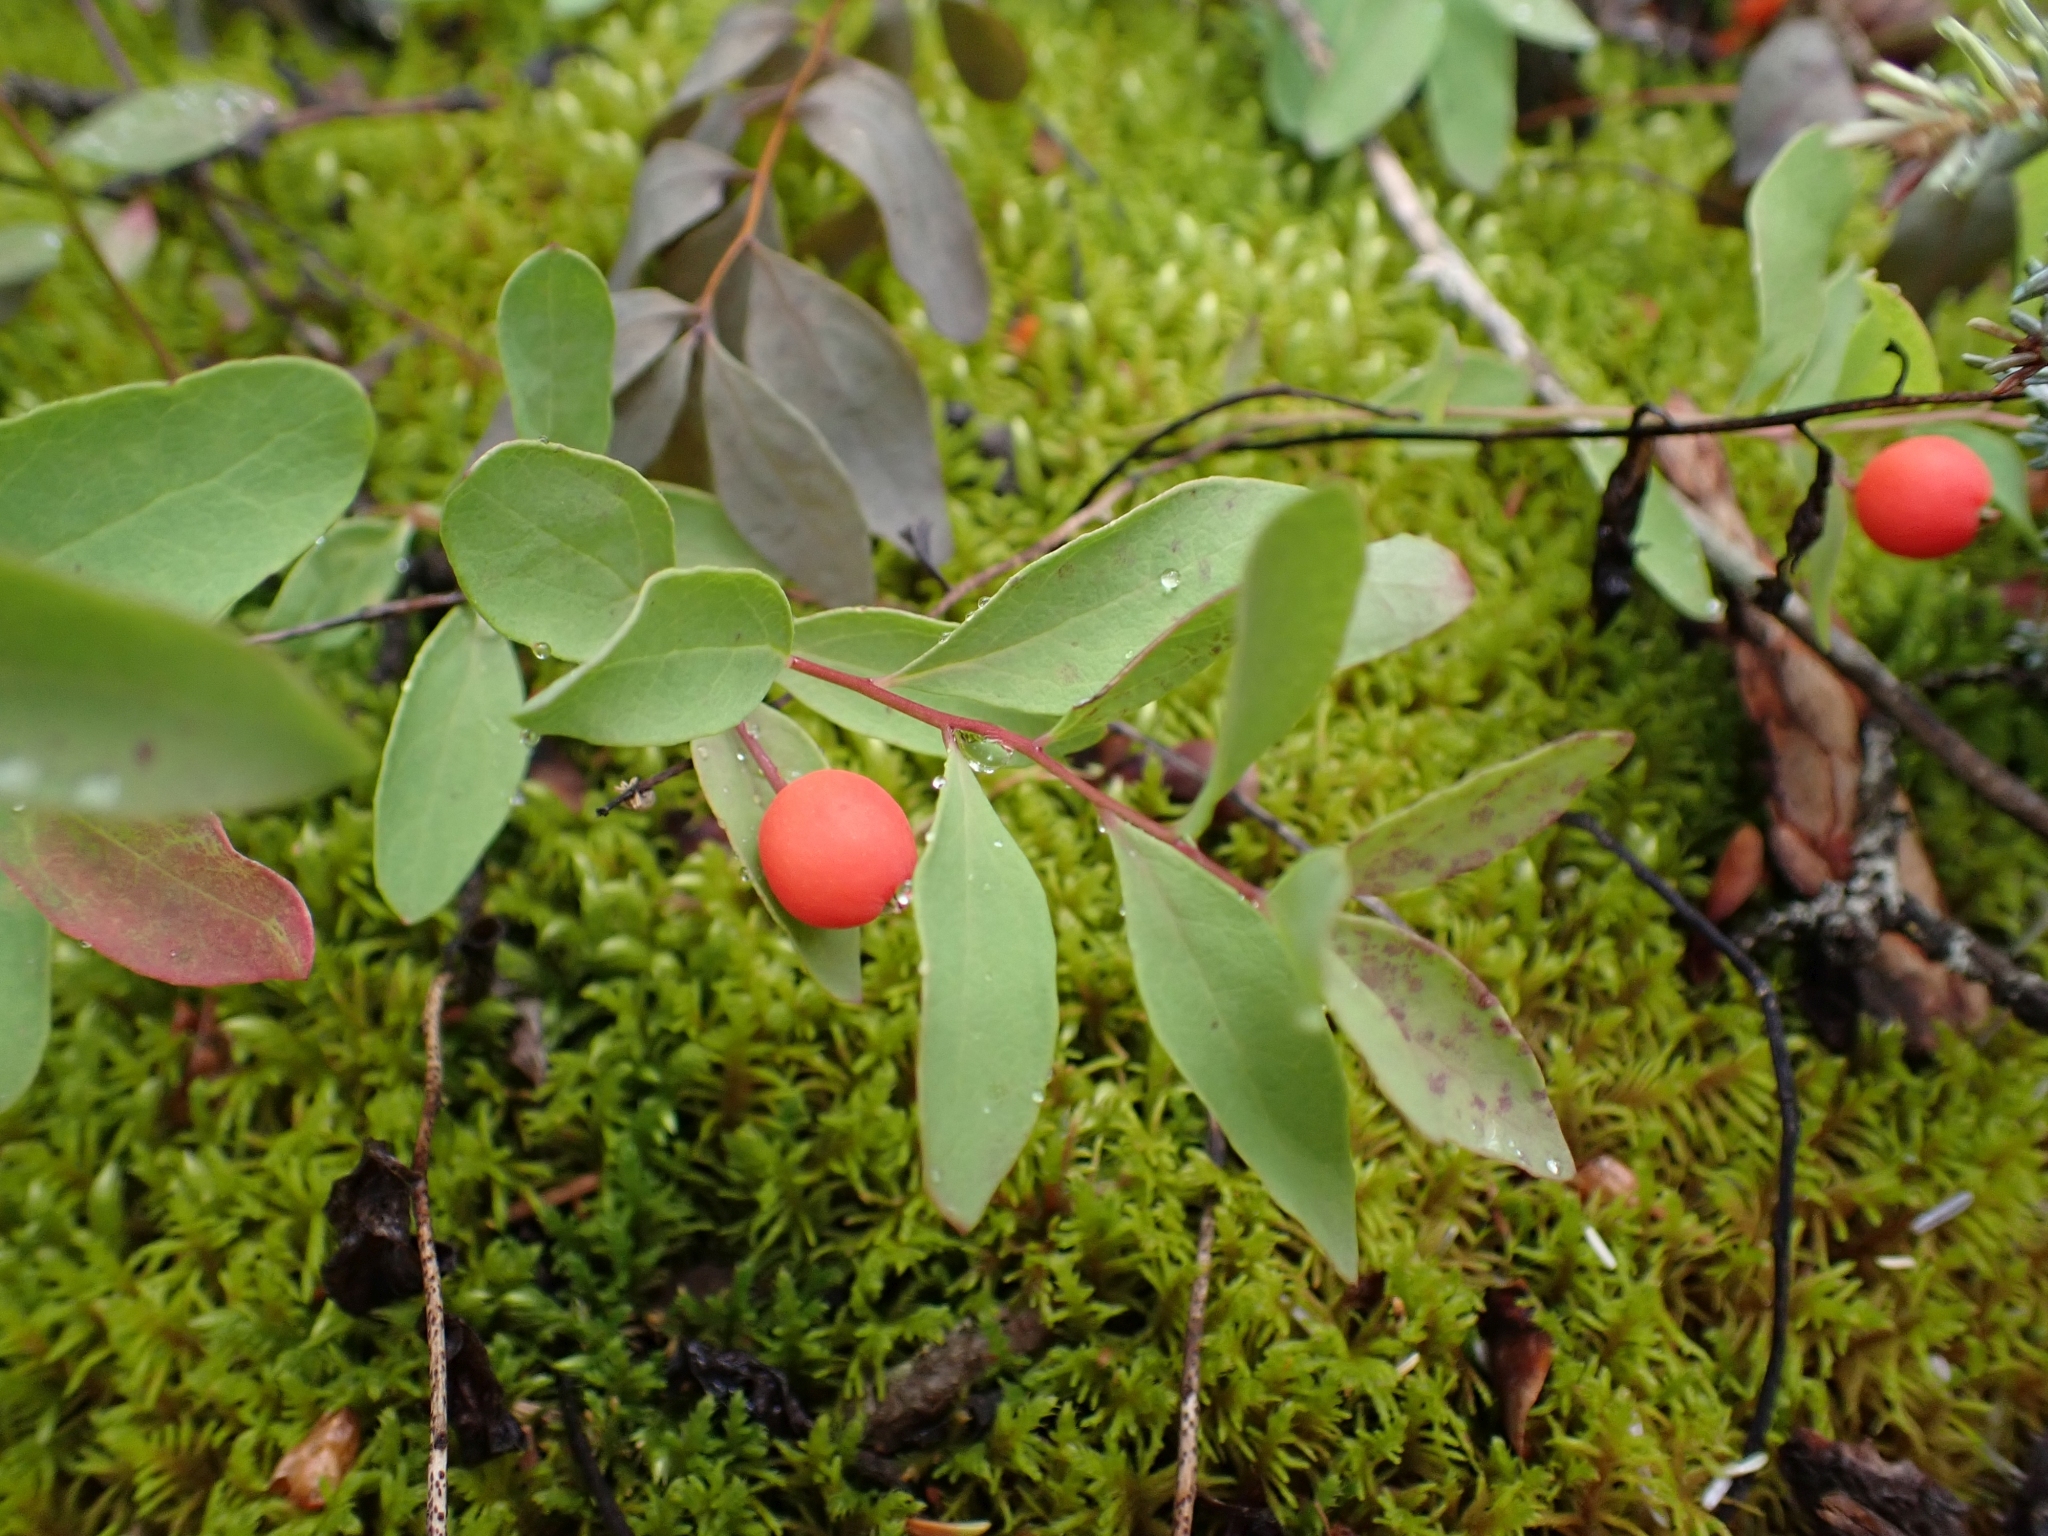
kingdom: Plantae
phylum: Tracheophyta
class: Magnoliopsida
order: Santalales
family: Comandraceae
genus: Geocaulon
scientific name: Geocaulon lividum
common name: Earthberry
